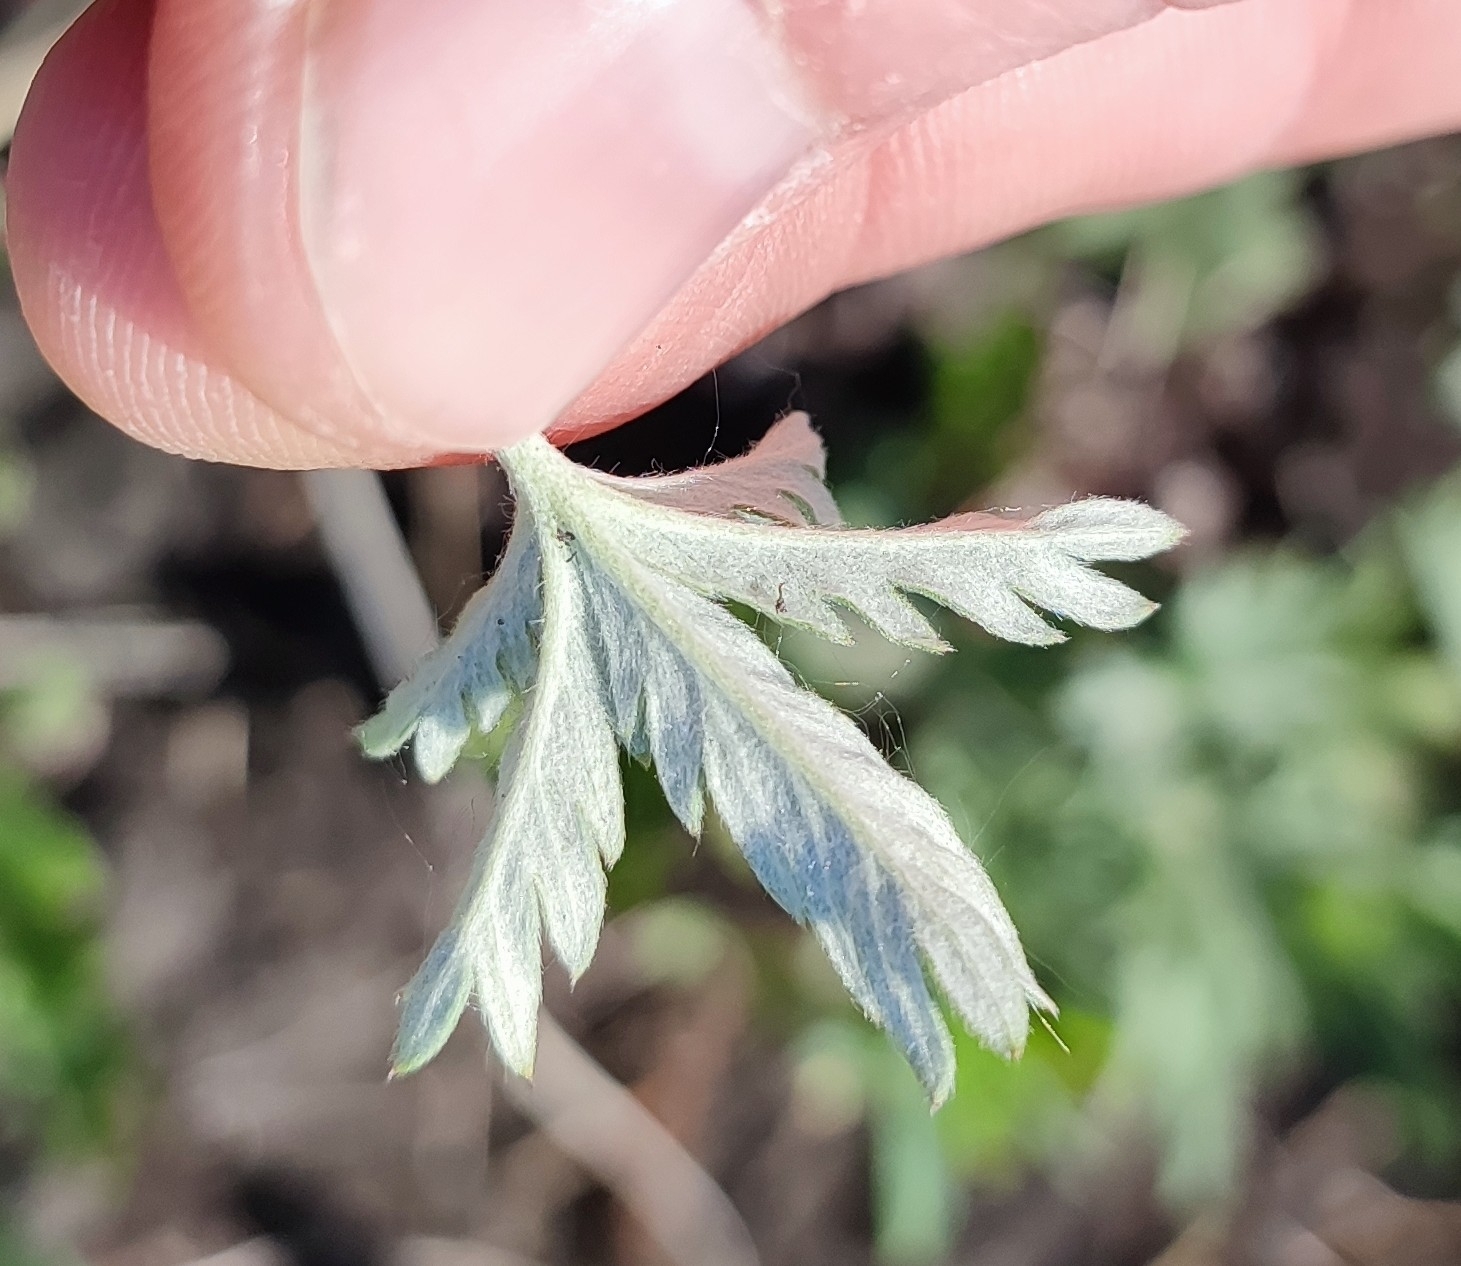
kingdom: Plantae
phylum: Tracheophyta
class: Magnoliopsida
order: Rosales
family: Rosaceae
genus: Potentilla
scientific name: Potentilla argentea
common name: Hoary cinquefoil
